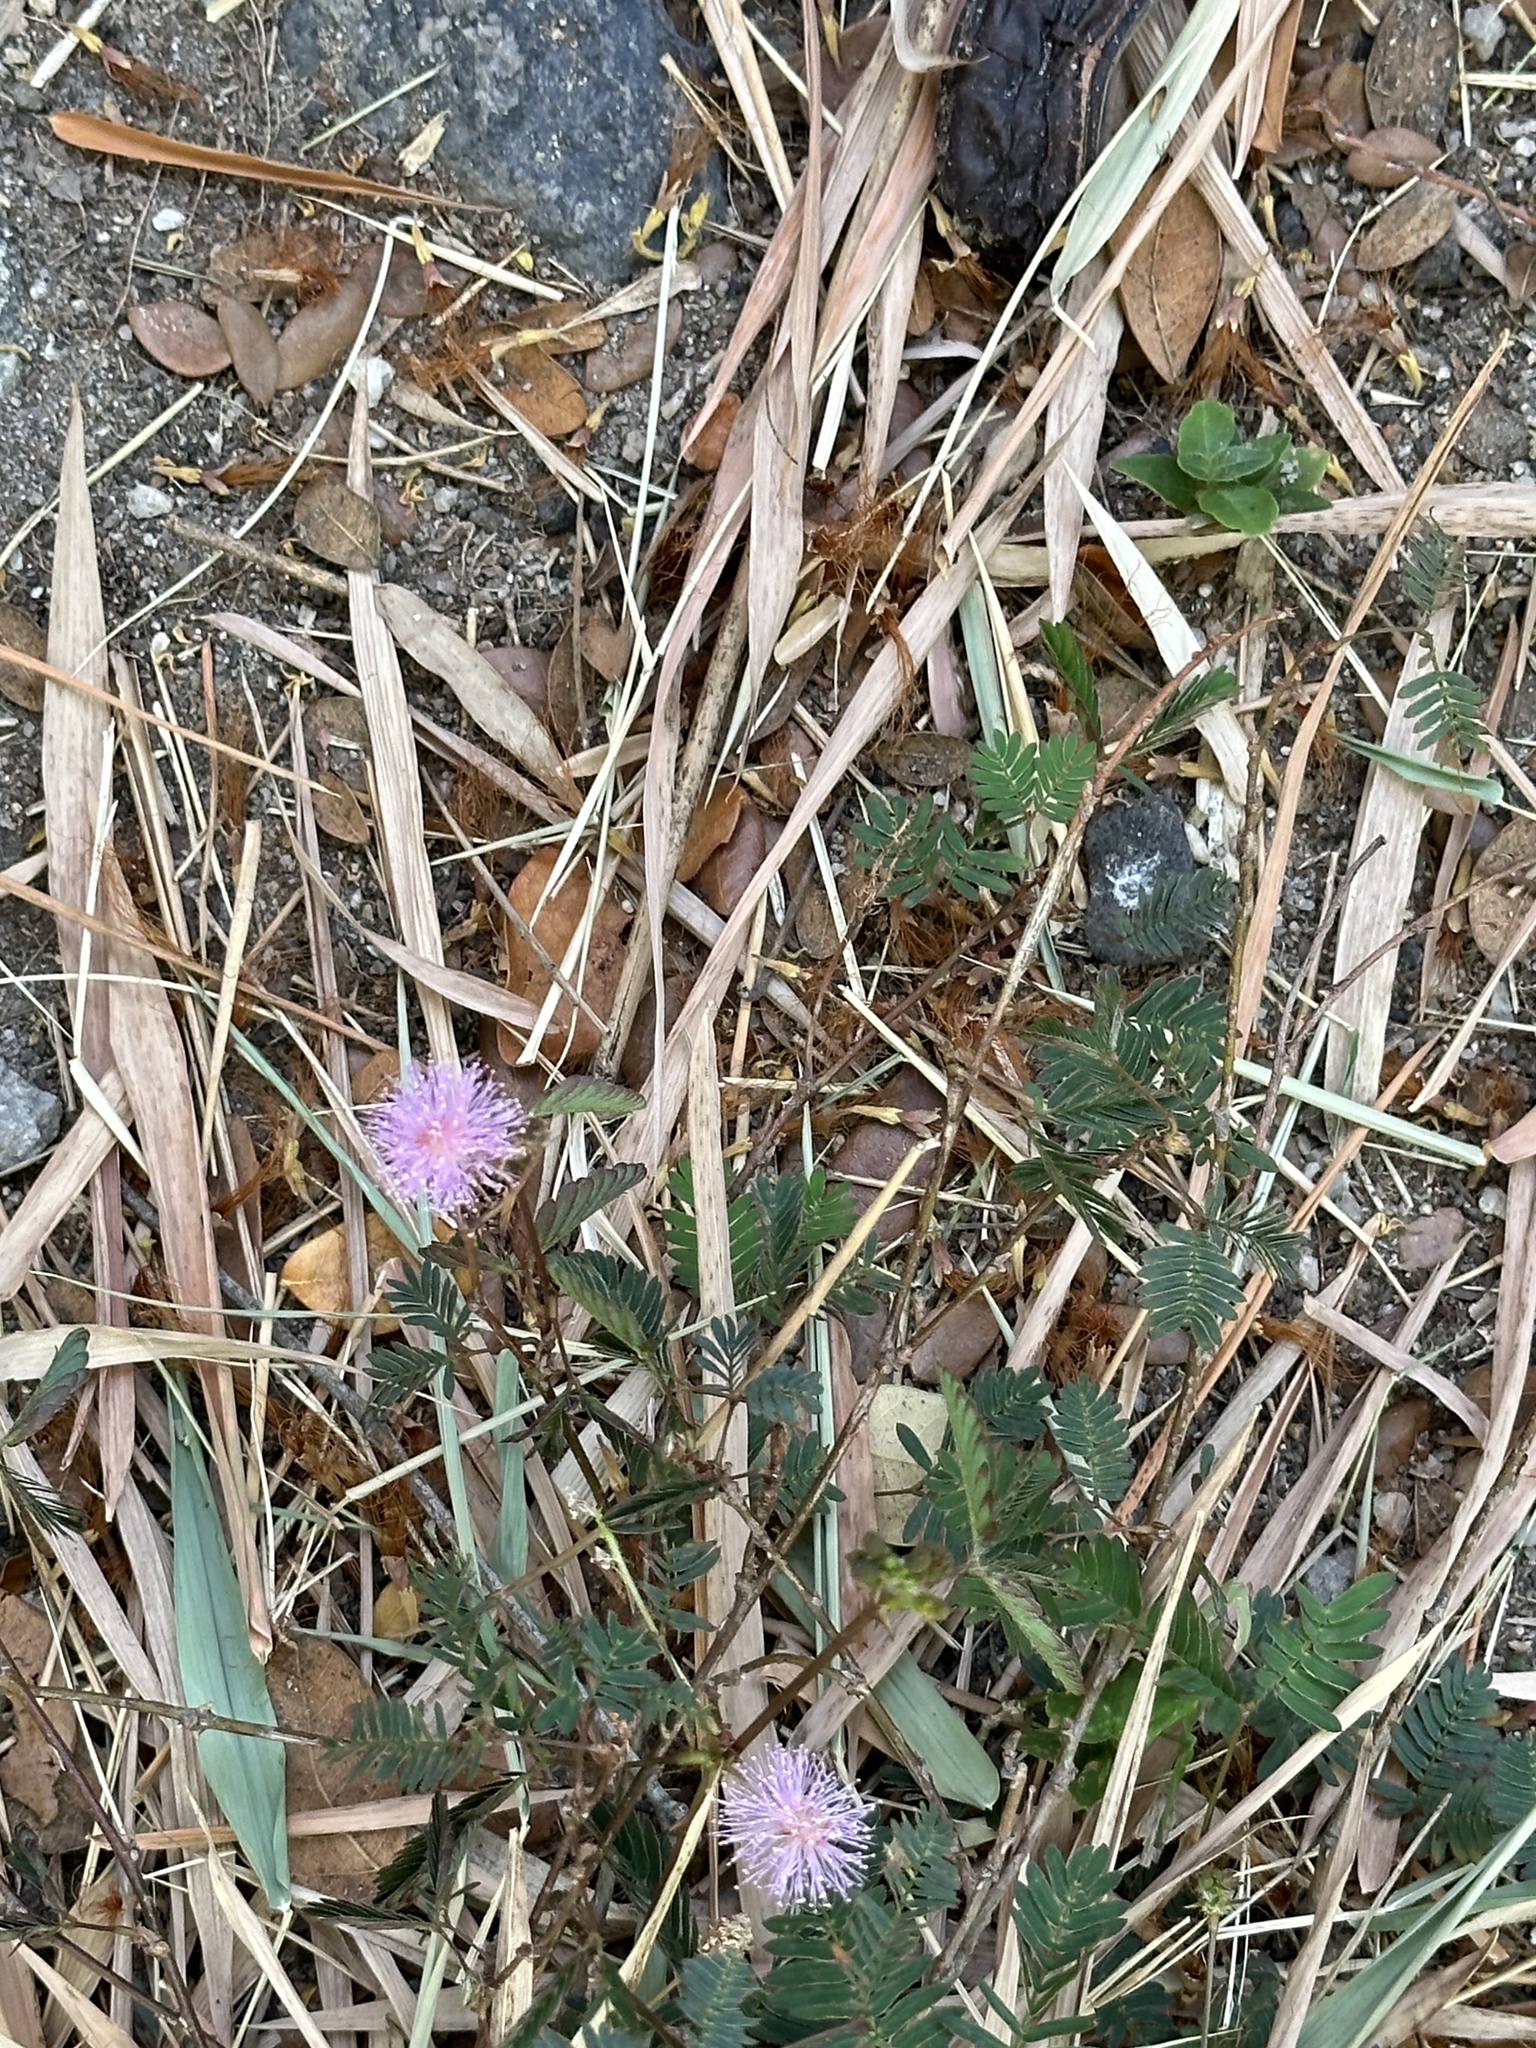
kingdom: Plantae
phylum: Tracheophyta
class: Magnoliopsida
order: Fabales
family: Fabaceae
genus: Mimosa
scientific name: Mimosa pudica
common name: Sensitive plant
